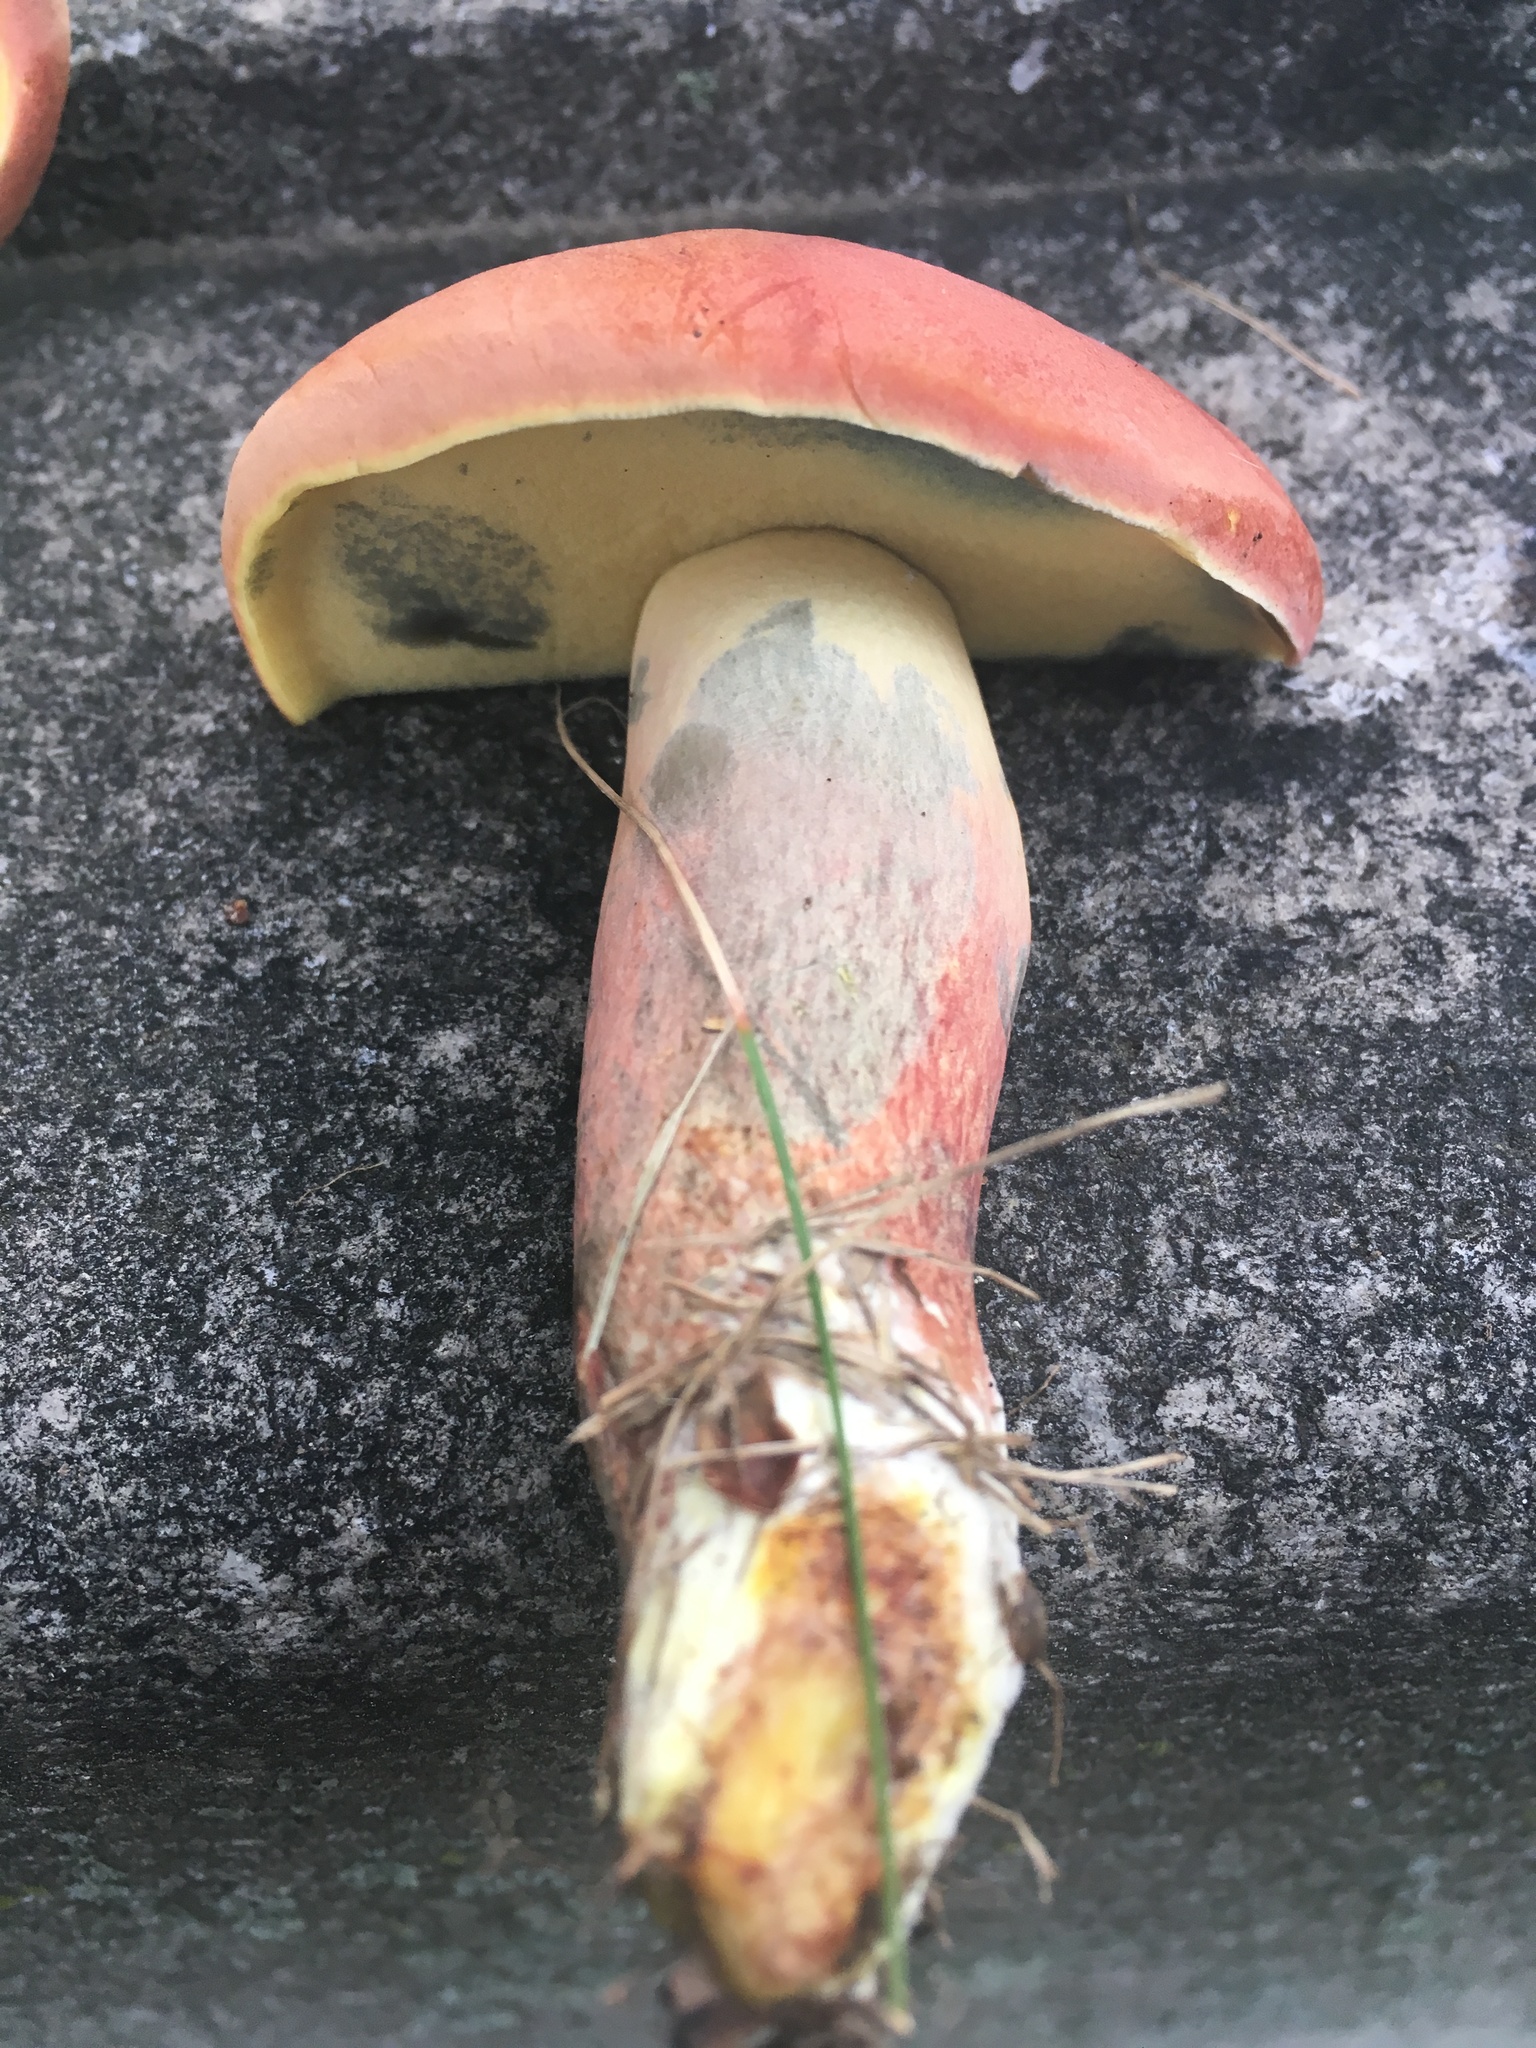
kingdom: Fungi
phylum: Basidiomycota
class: Agaricomycetes
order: Boletales
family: Boletaceae
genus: Lanmaoa
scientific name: Lanmaoa pseudosensibilis
